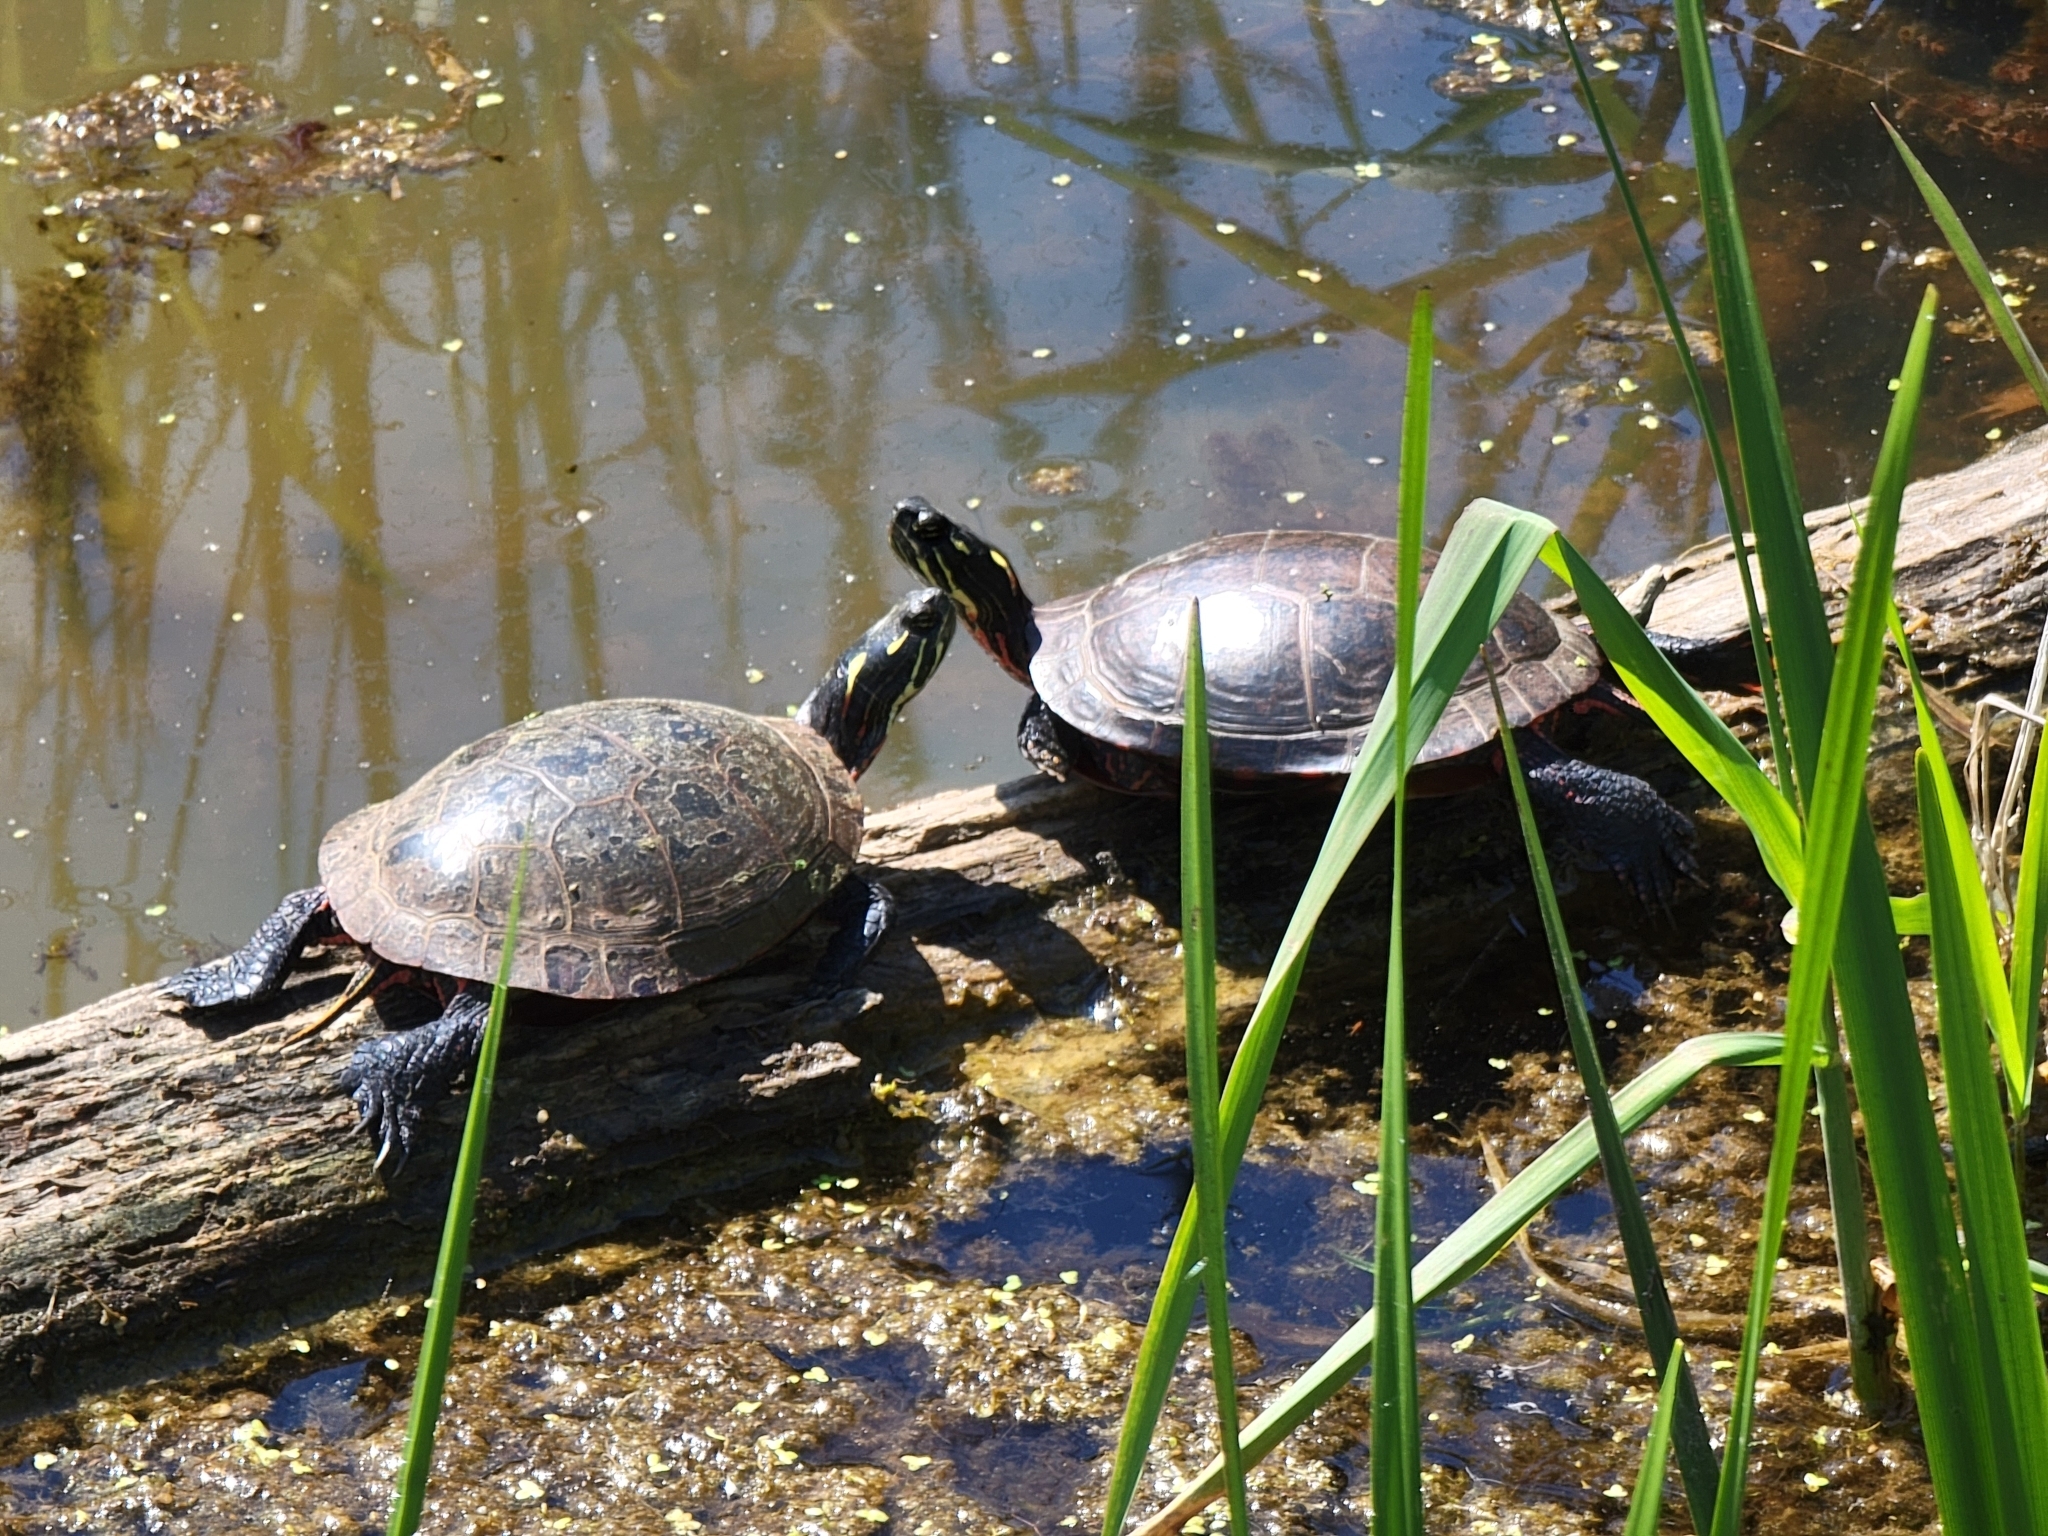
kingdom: Animalia
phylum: Chordata
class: Testudines
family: Emydidae
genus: Chrysemys
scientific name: Chrysemys picta
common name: Painted turtle
